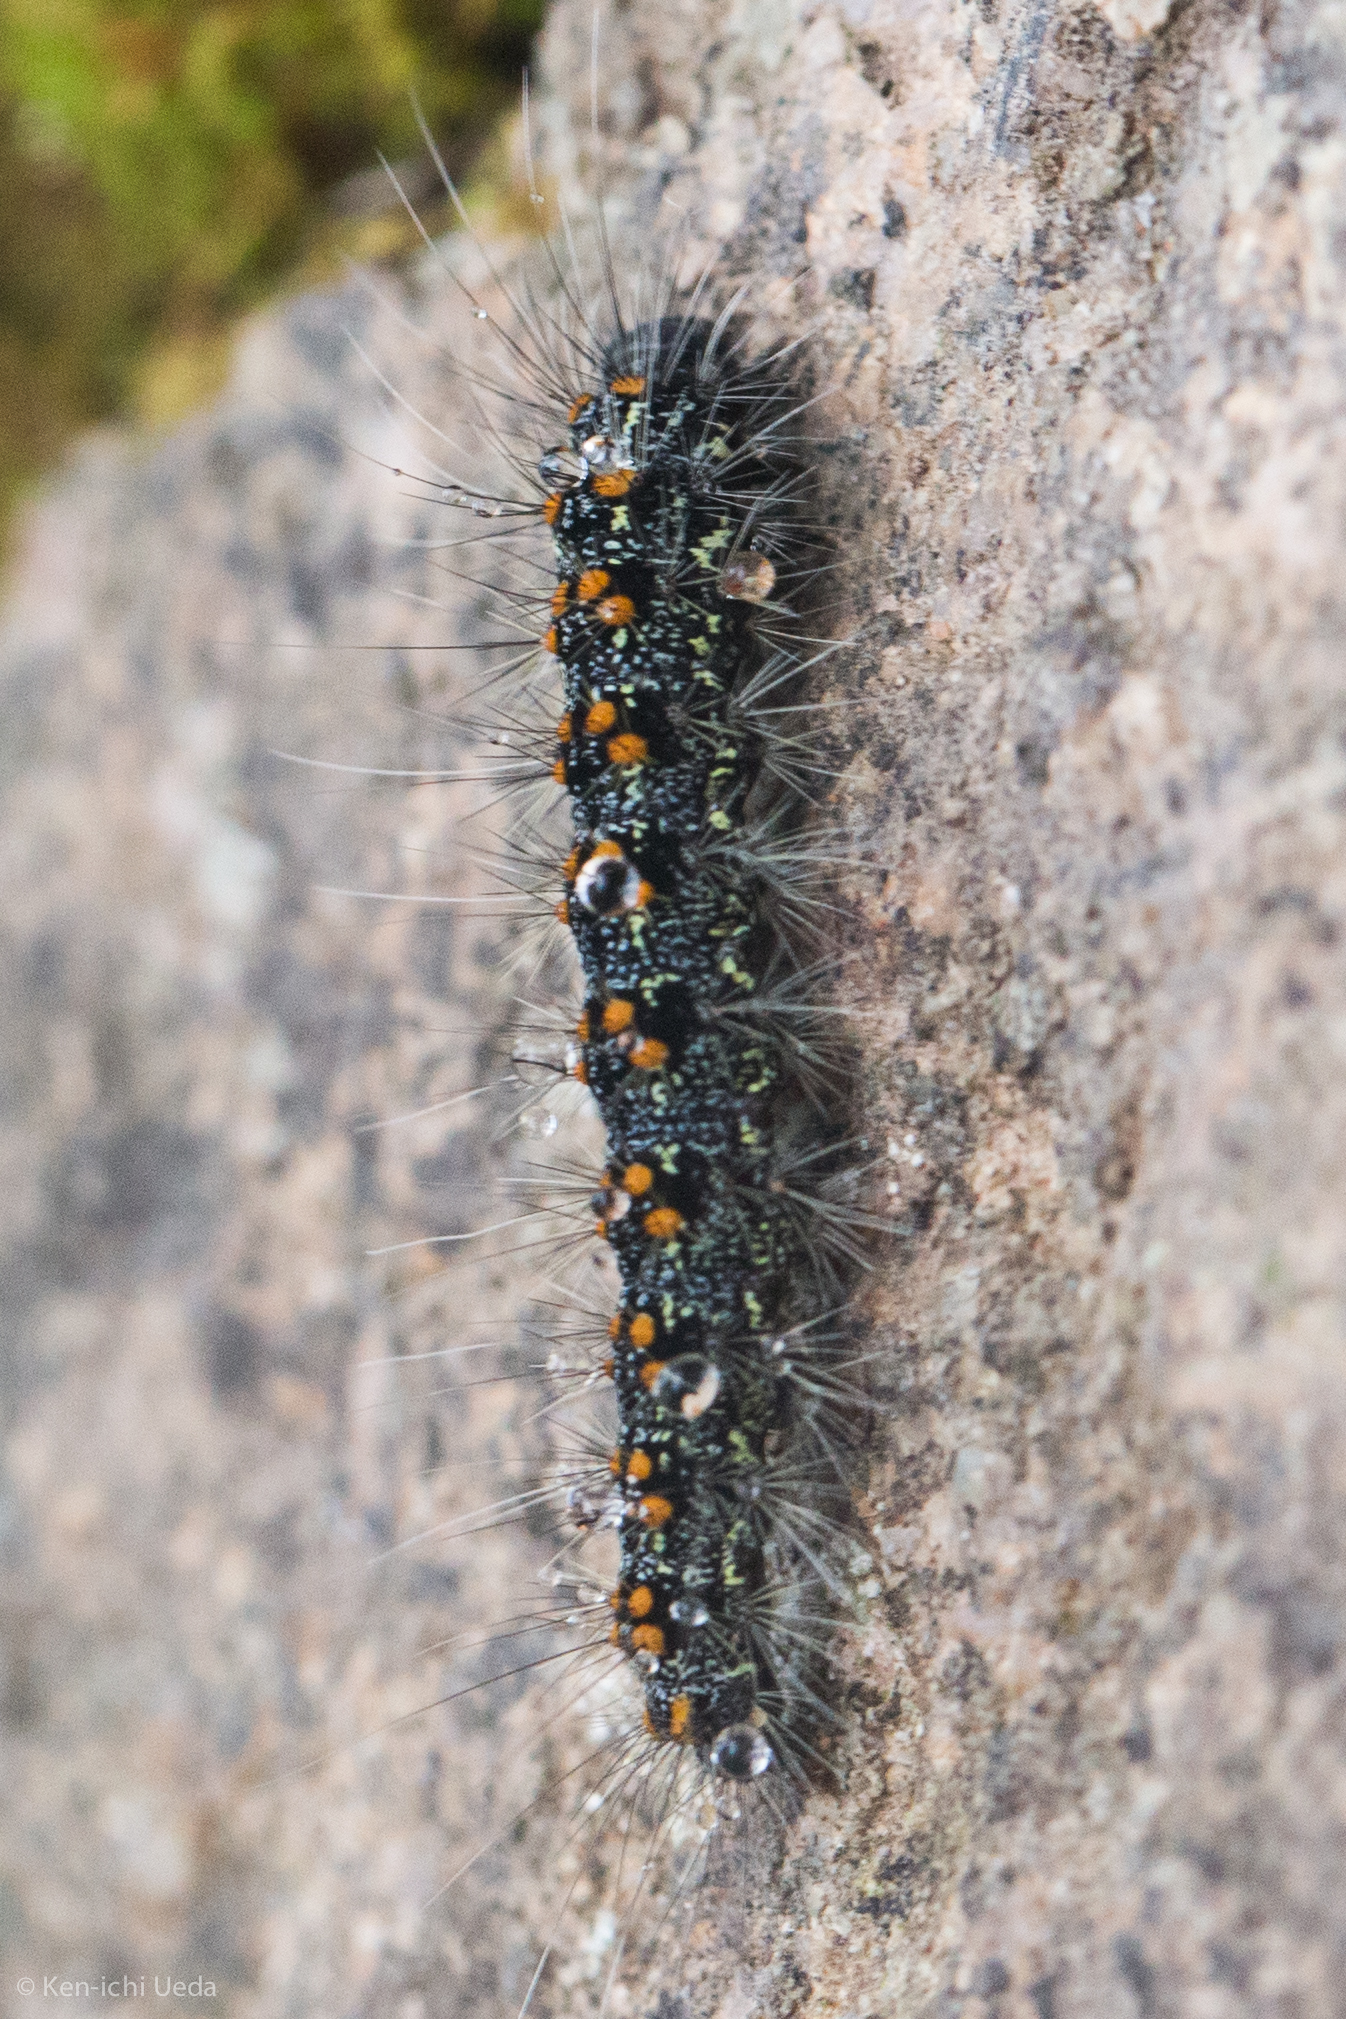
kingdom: Animalia
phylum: Arthropoda
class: Insecta
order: Lepidoptera
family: Erebidae
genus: Inopsis
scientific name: Inopsis modulata
